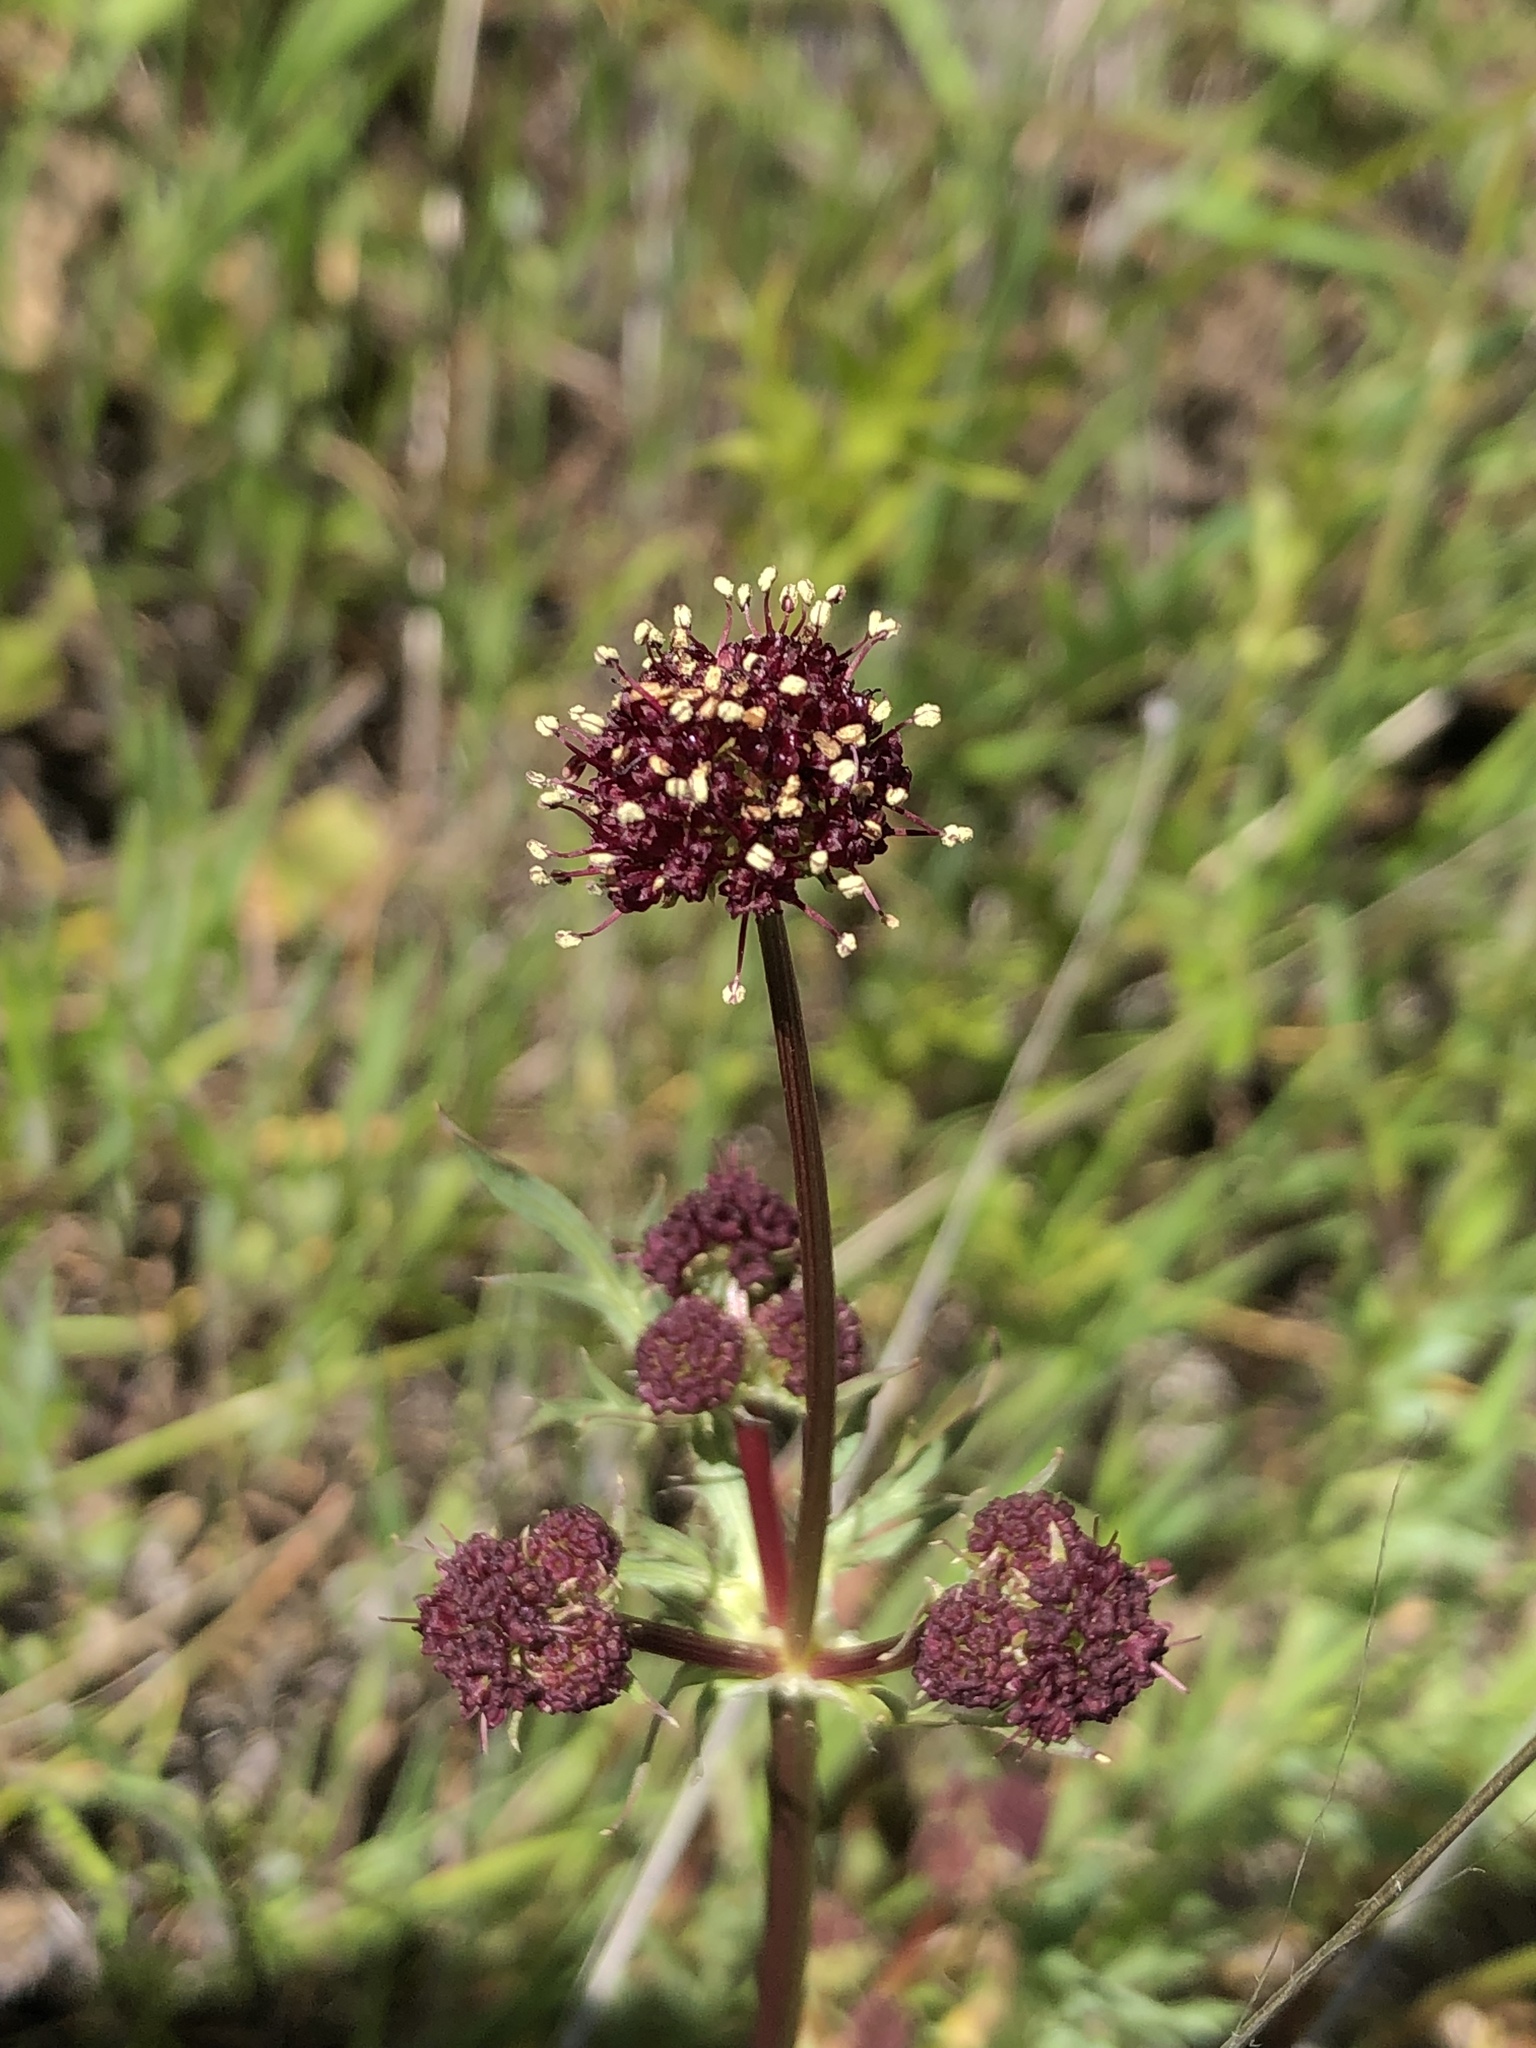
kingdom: Plantae
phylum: Tracheophyta
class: Magnoliopsida
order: Apiales
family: Apiaceae
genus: Sanicula
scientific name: Sanicula bipinnatifida
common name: Shoe-buttons
